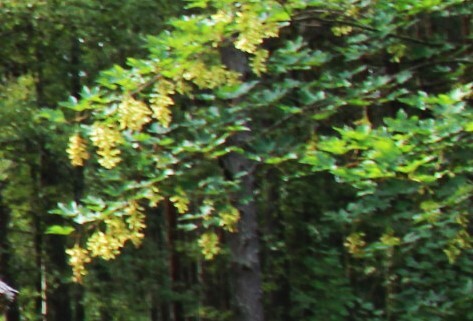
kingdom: Plantae
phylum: Tracheophyta
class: Magnoliopsida
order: Sapindales
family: Sapindaceae
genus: Acer
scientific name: Acer pseudoplatanus
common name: Sycamore
